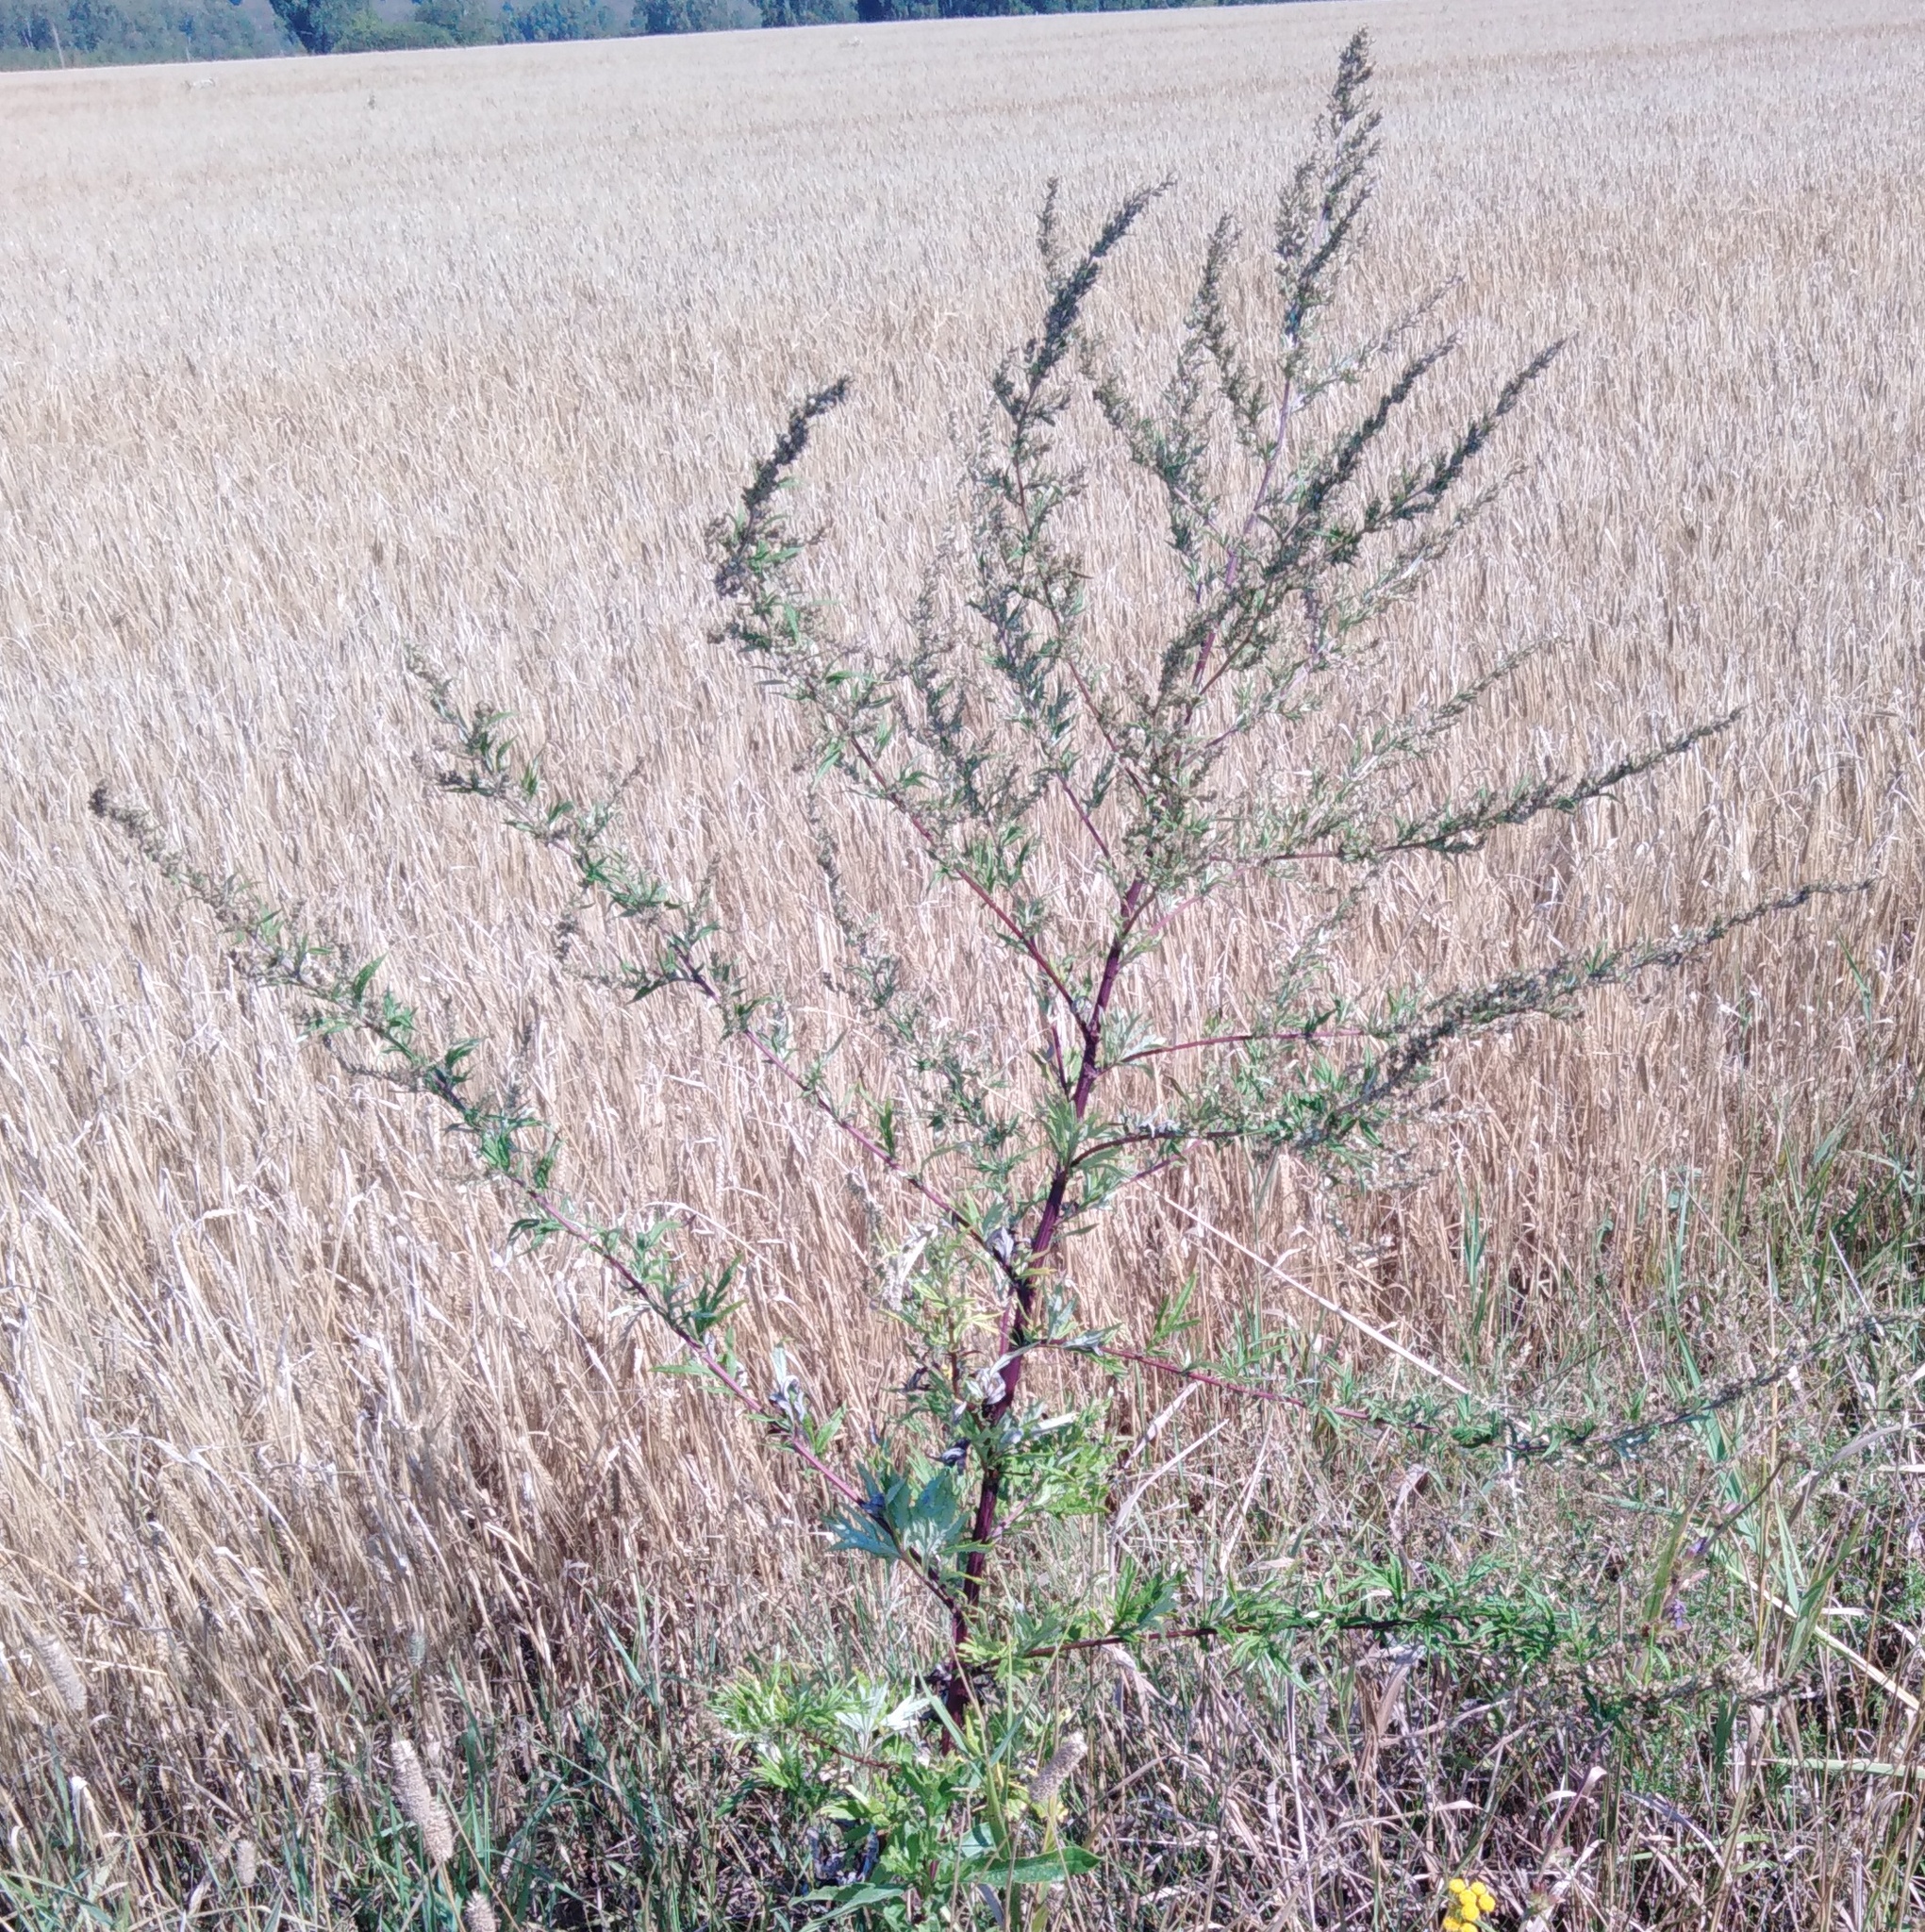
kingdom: Plantae
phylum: Tracheophyta
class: Magnoliopsida
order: Asterales
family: Asteraceae
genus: Artemisia
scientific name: Artemisia vulgaris
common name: Mugwort
